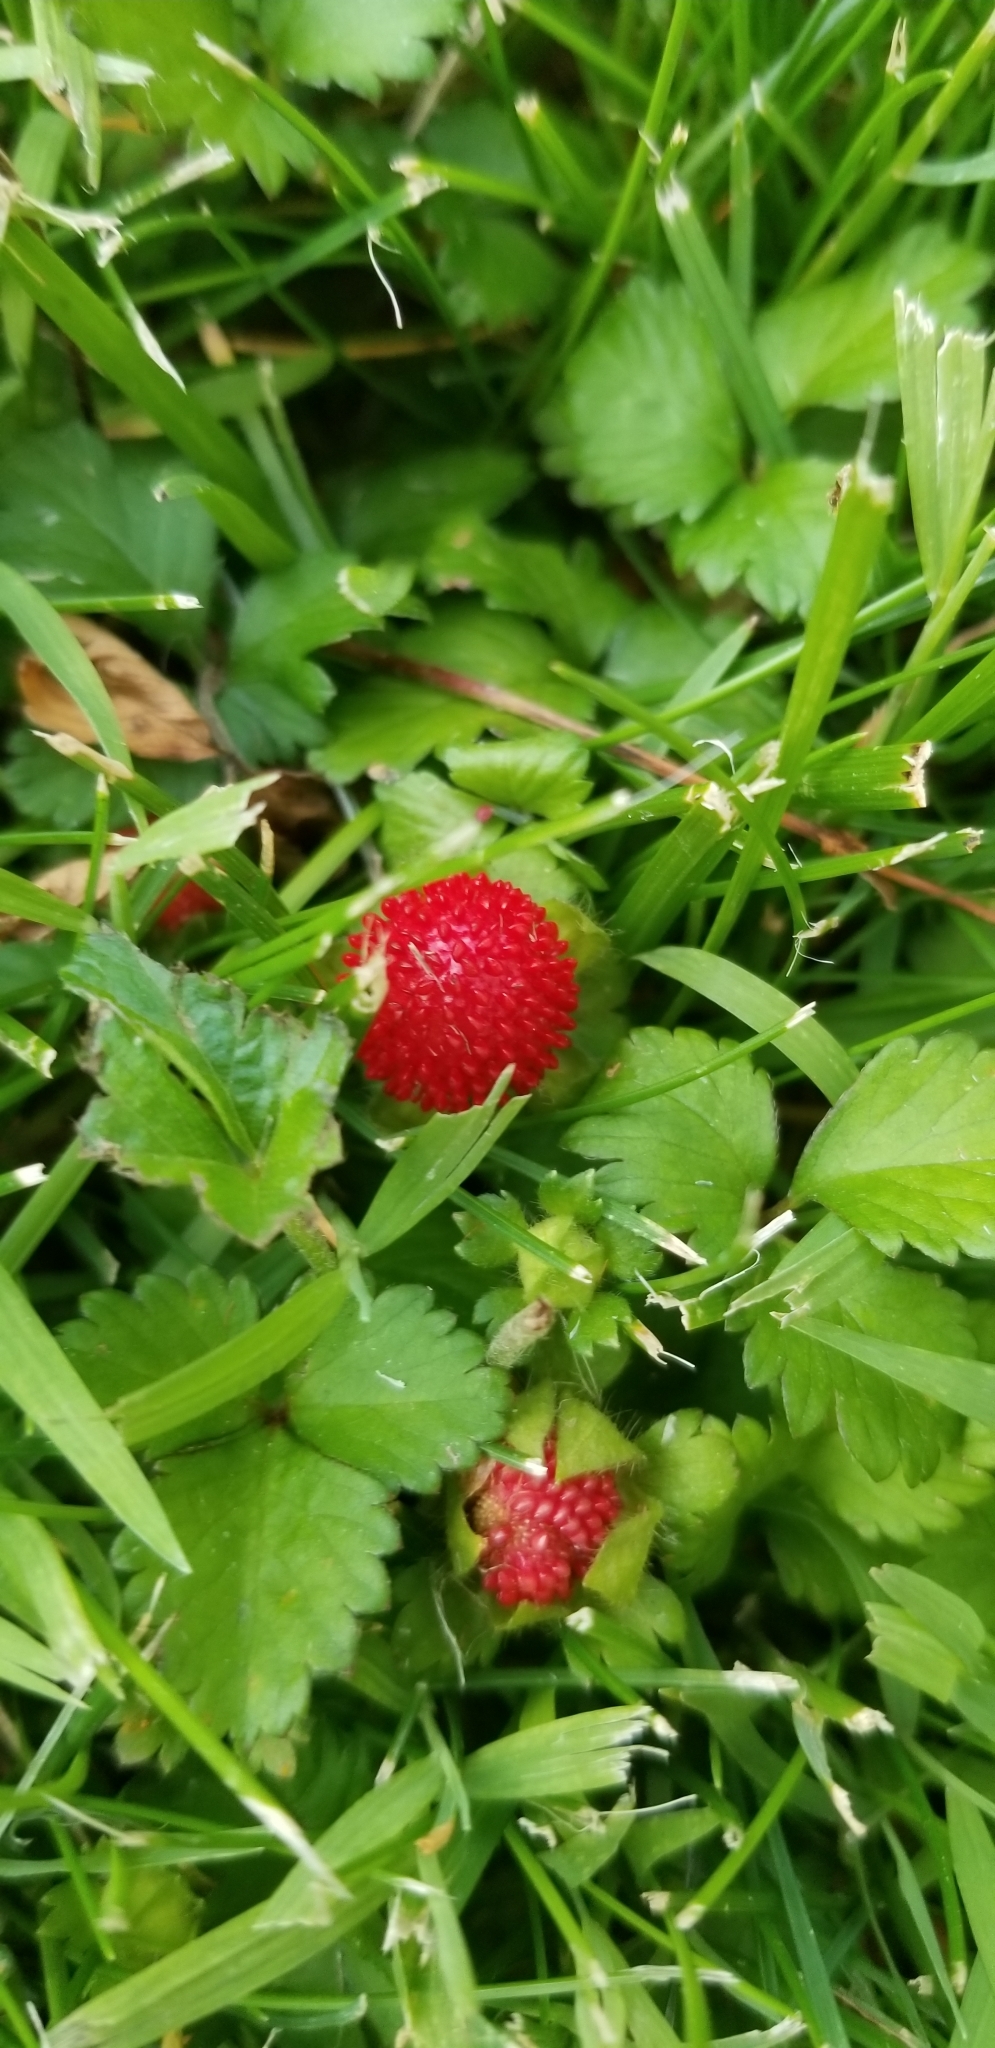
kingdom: Plantae
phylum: Tracheophyta
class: Magnoliopsida
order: Rosales
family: Rosaceae
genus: Potentilla
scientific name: Potentilla indica
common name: Yellow-flowered strawberry
